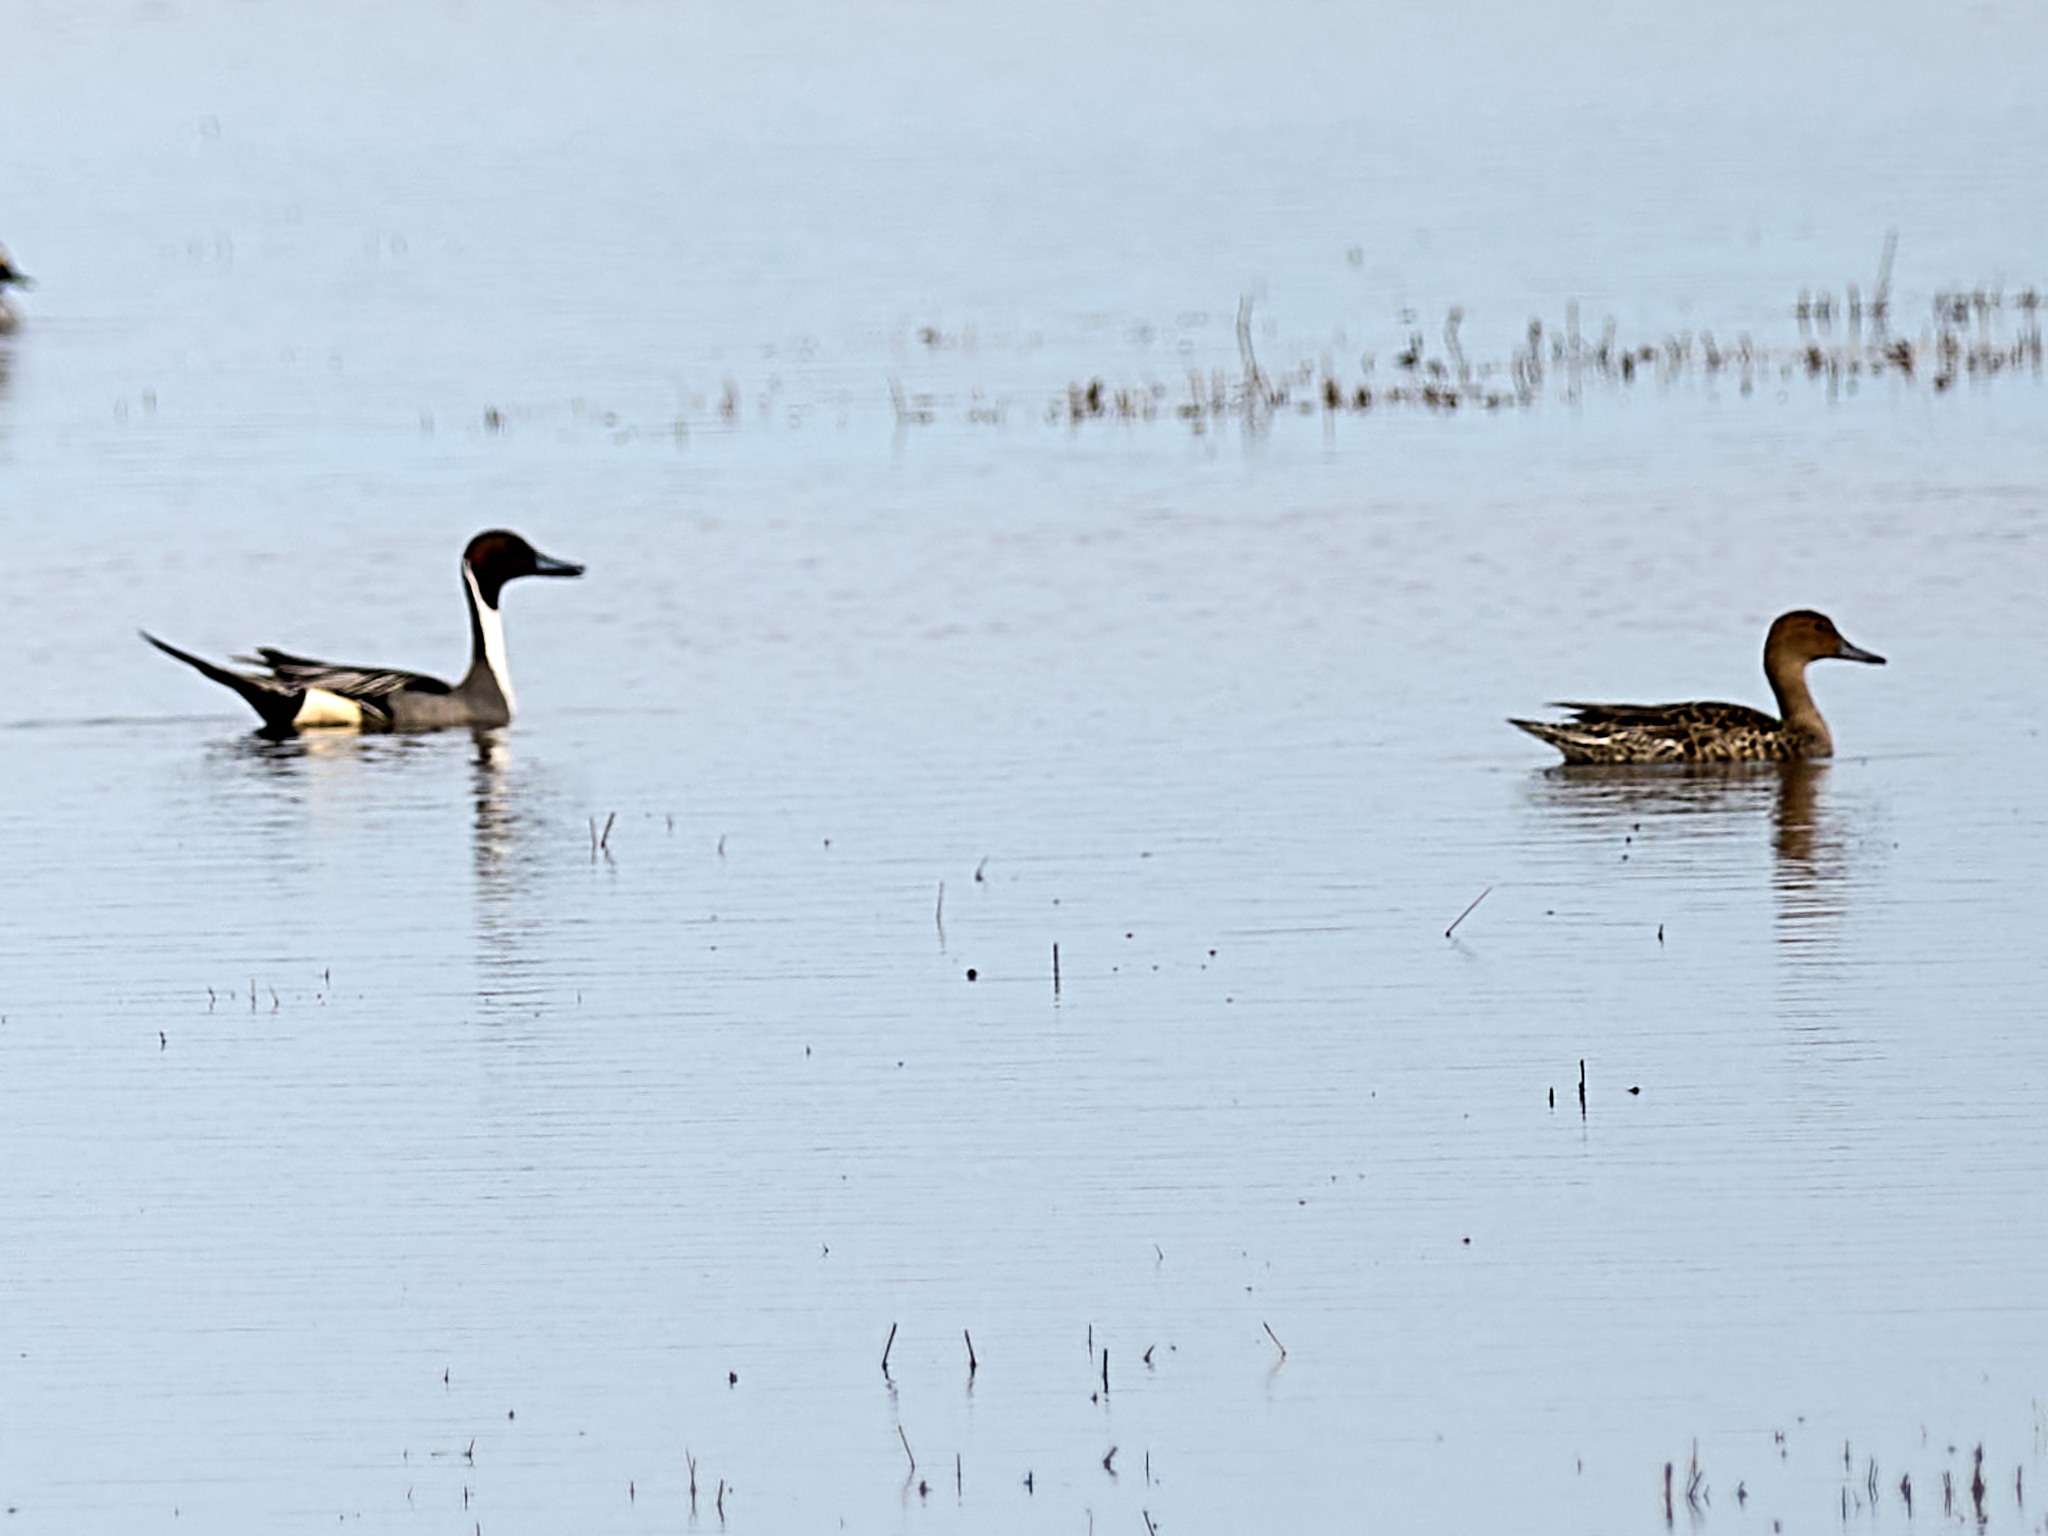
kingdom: Animalia
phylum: Chordata
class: Aves
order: Anseriformes
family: Anatidae
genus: Anas
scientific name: Anas acuta
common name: Northern pintail
